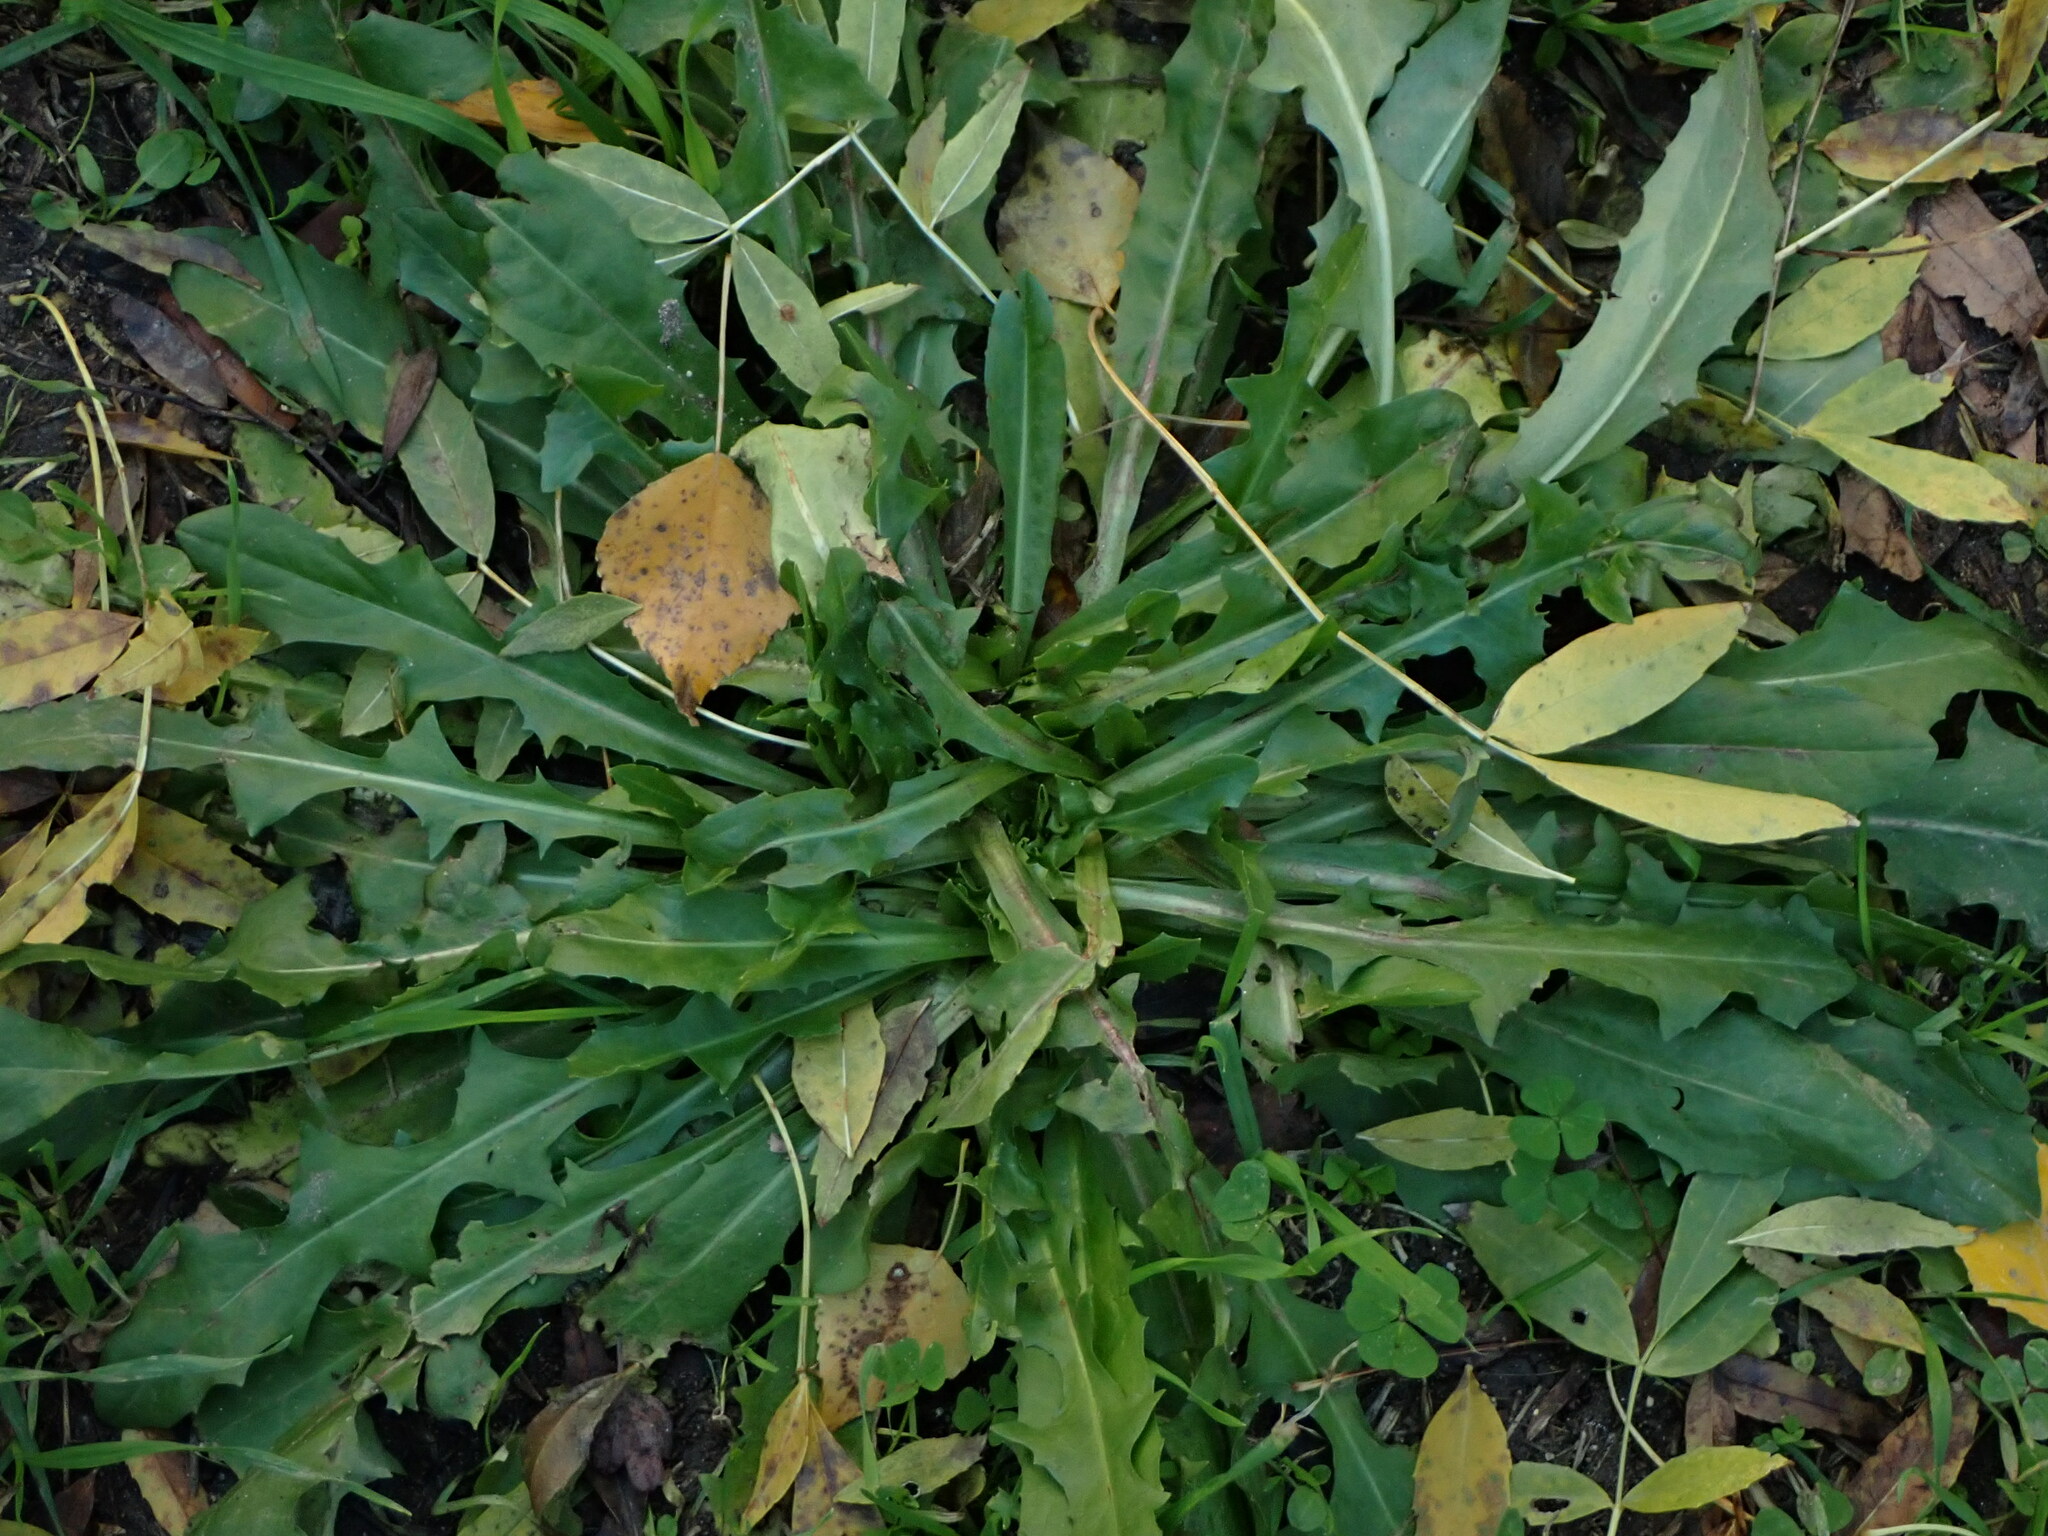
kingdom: Plantae
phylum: Tracheophyta
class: Magnoliopsida
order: Asterales
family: Asteraceae
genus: Cichorium
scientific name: Cichorium intybus
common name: Chicory
